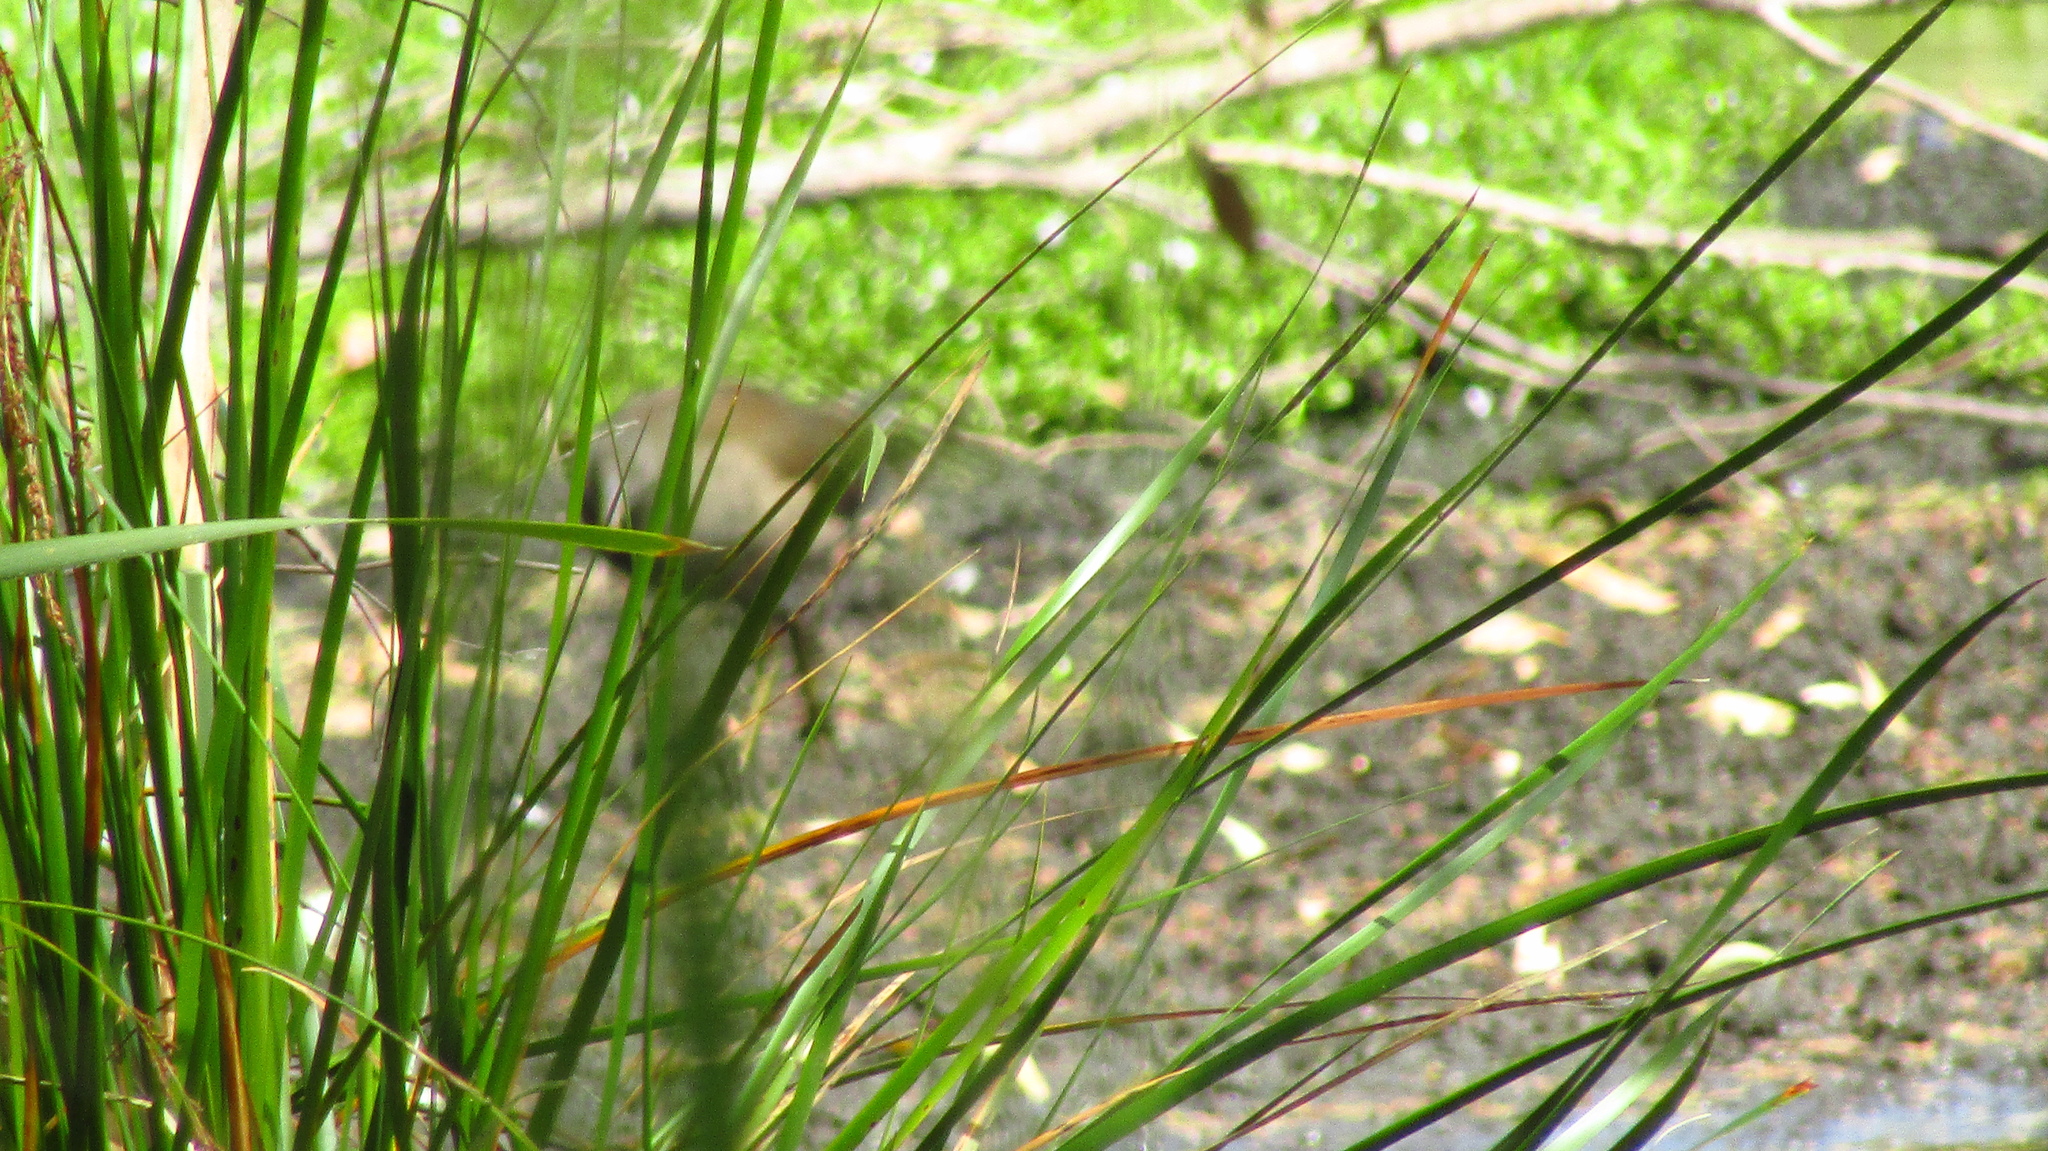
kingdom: Animalia
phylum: Chordata
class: Aves
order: Gruiformes
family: Rallidae
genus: Gallinula
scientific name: Gallinula tenebrosa
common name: Dusky moorhen
